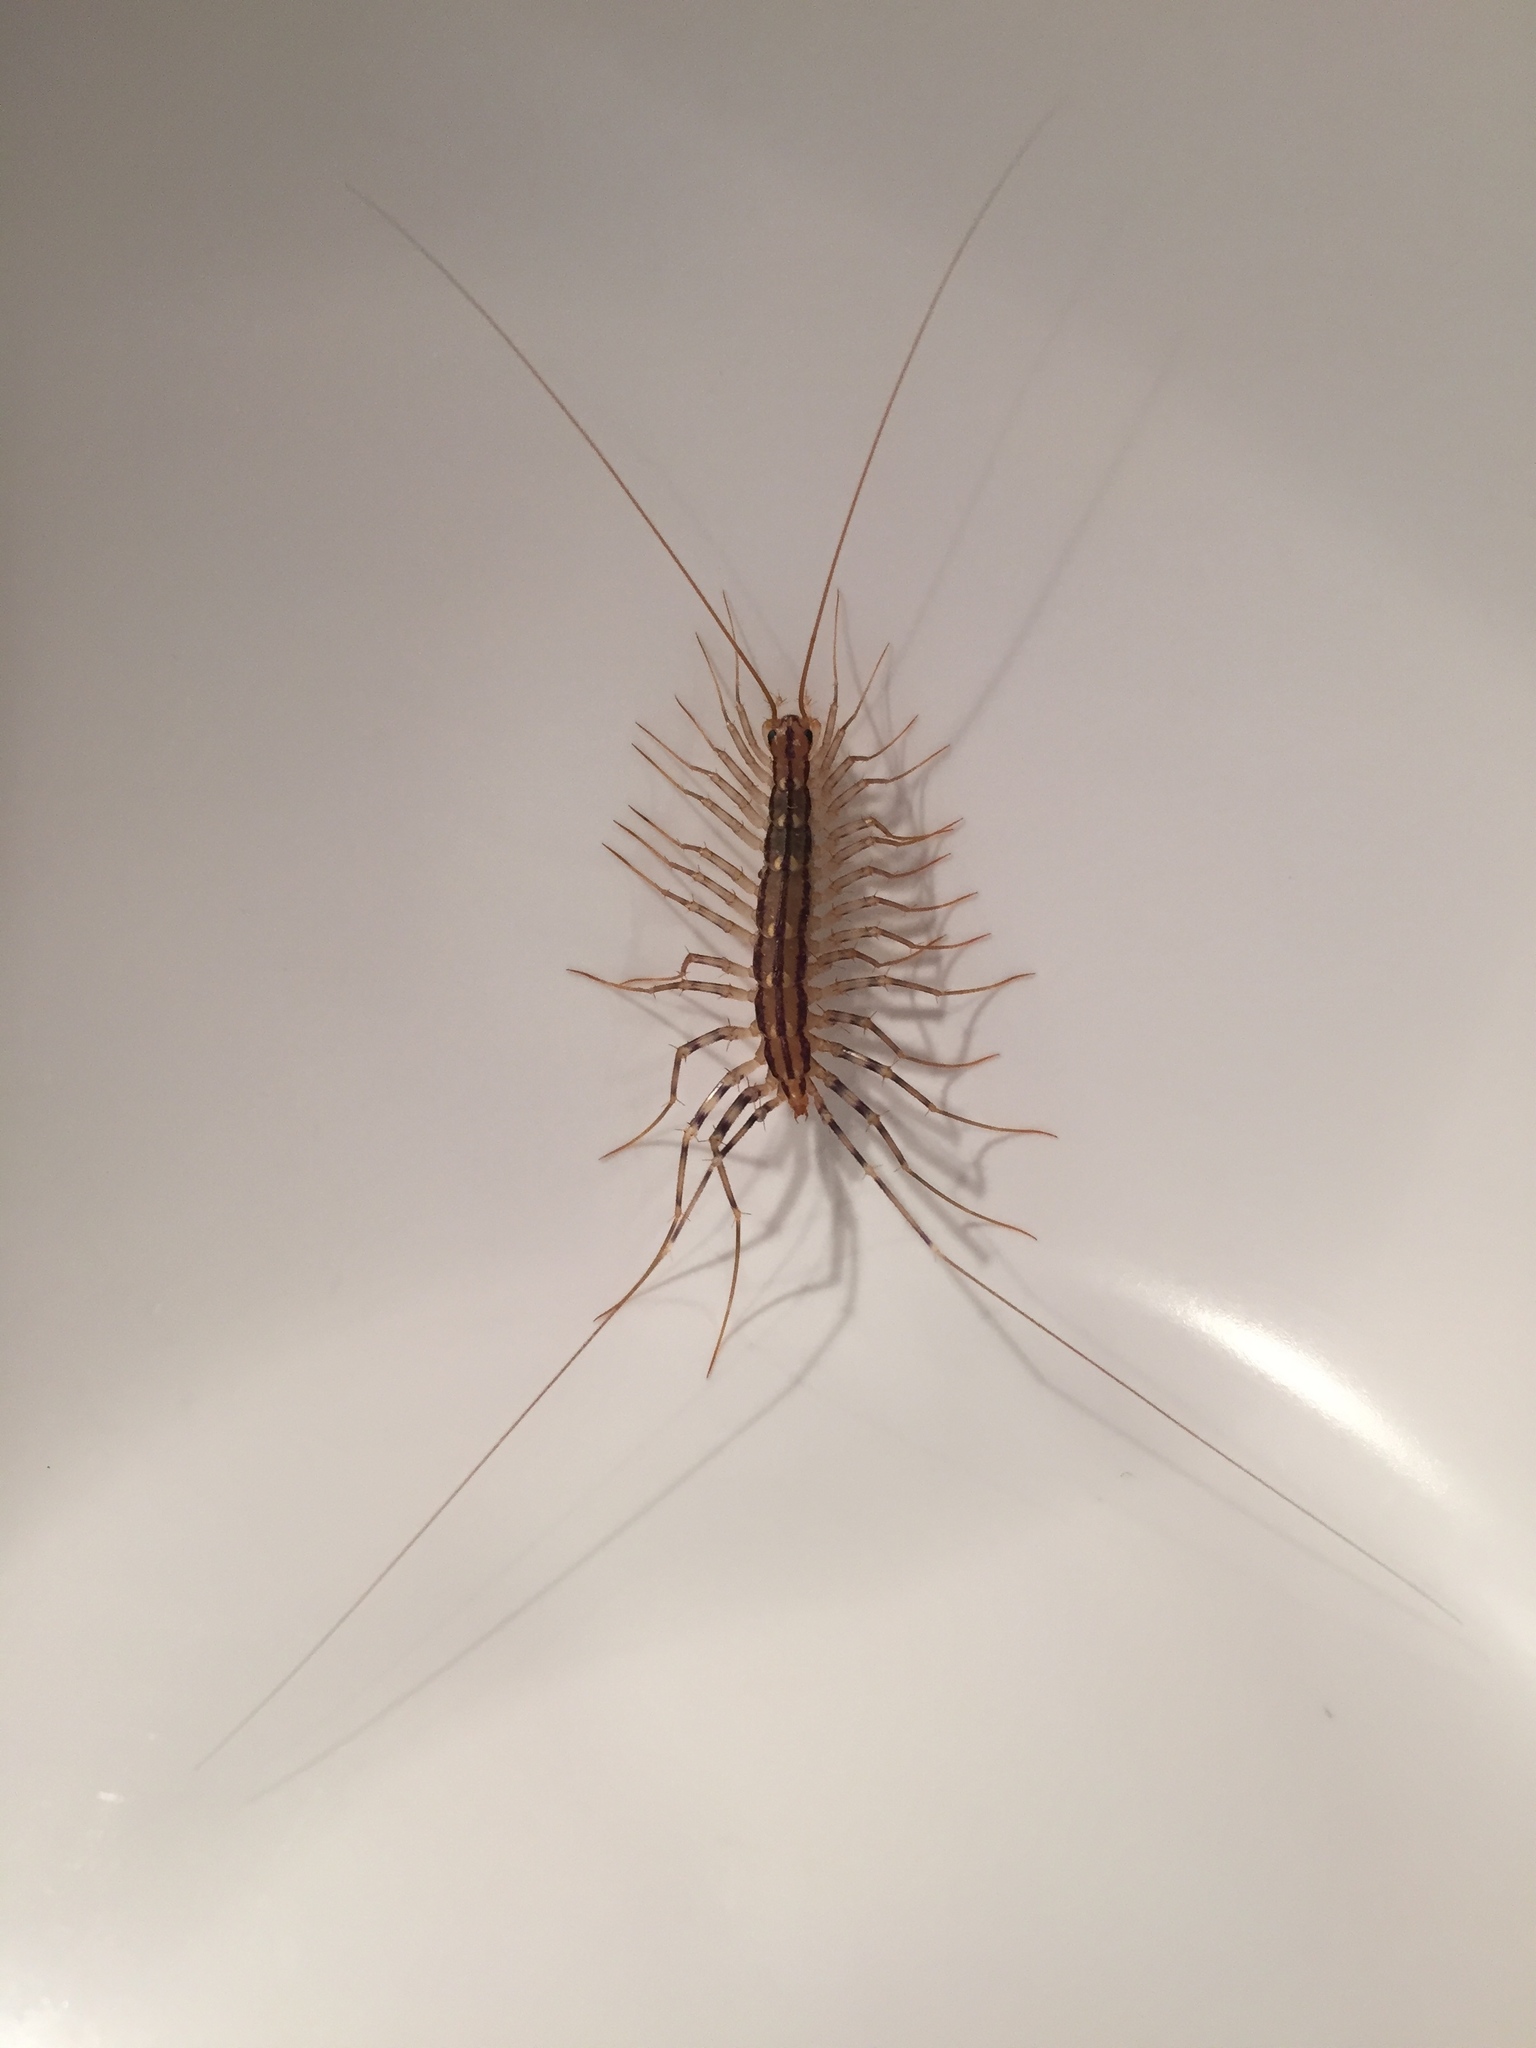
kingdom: Animalia
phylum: Arthropoda
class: Chilopoda
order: Scutigeromorpha
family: Scutigeridae
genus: Scutigera
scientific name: Scutigera coleoptrata
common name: House centipede
